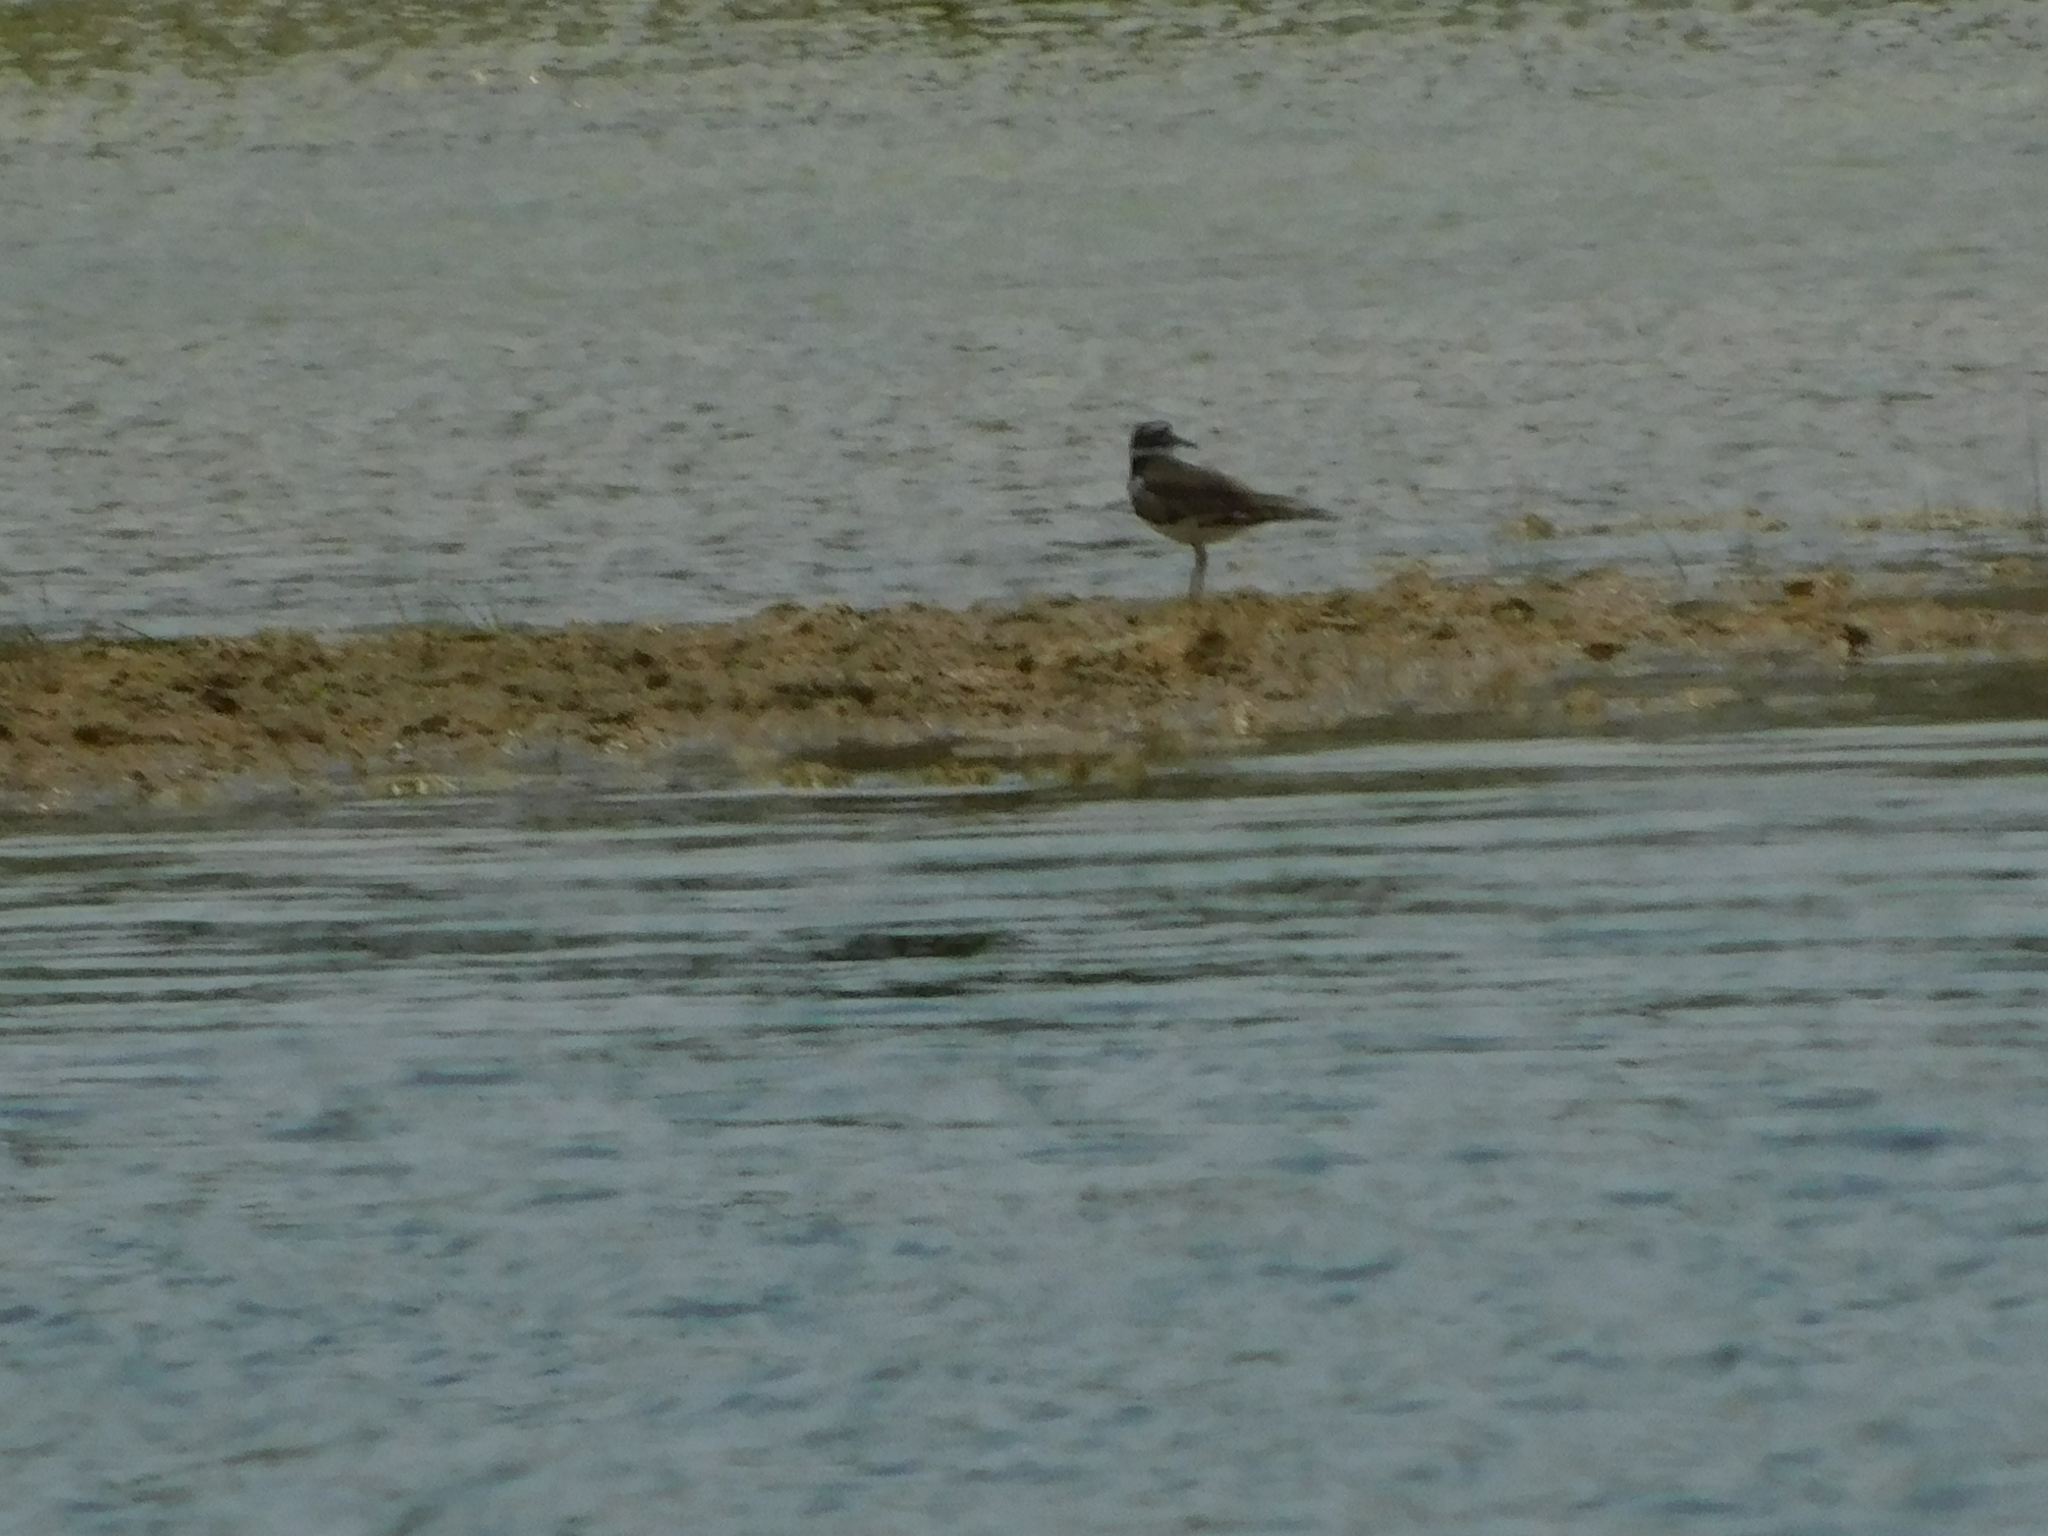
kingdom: Animalia
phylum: Chordata
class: Aves
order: Charadriiformes
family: Charadriidae
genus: Charadrius
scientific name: Charadrius vociferus
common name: Killdeer
